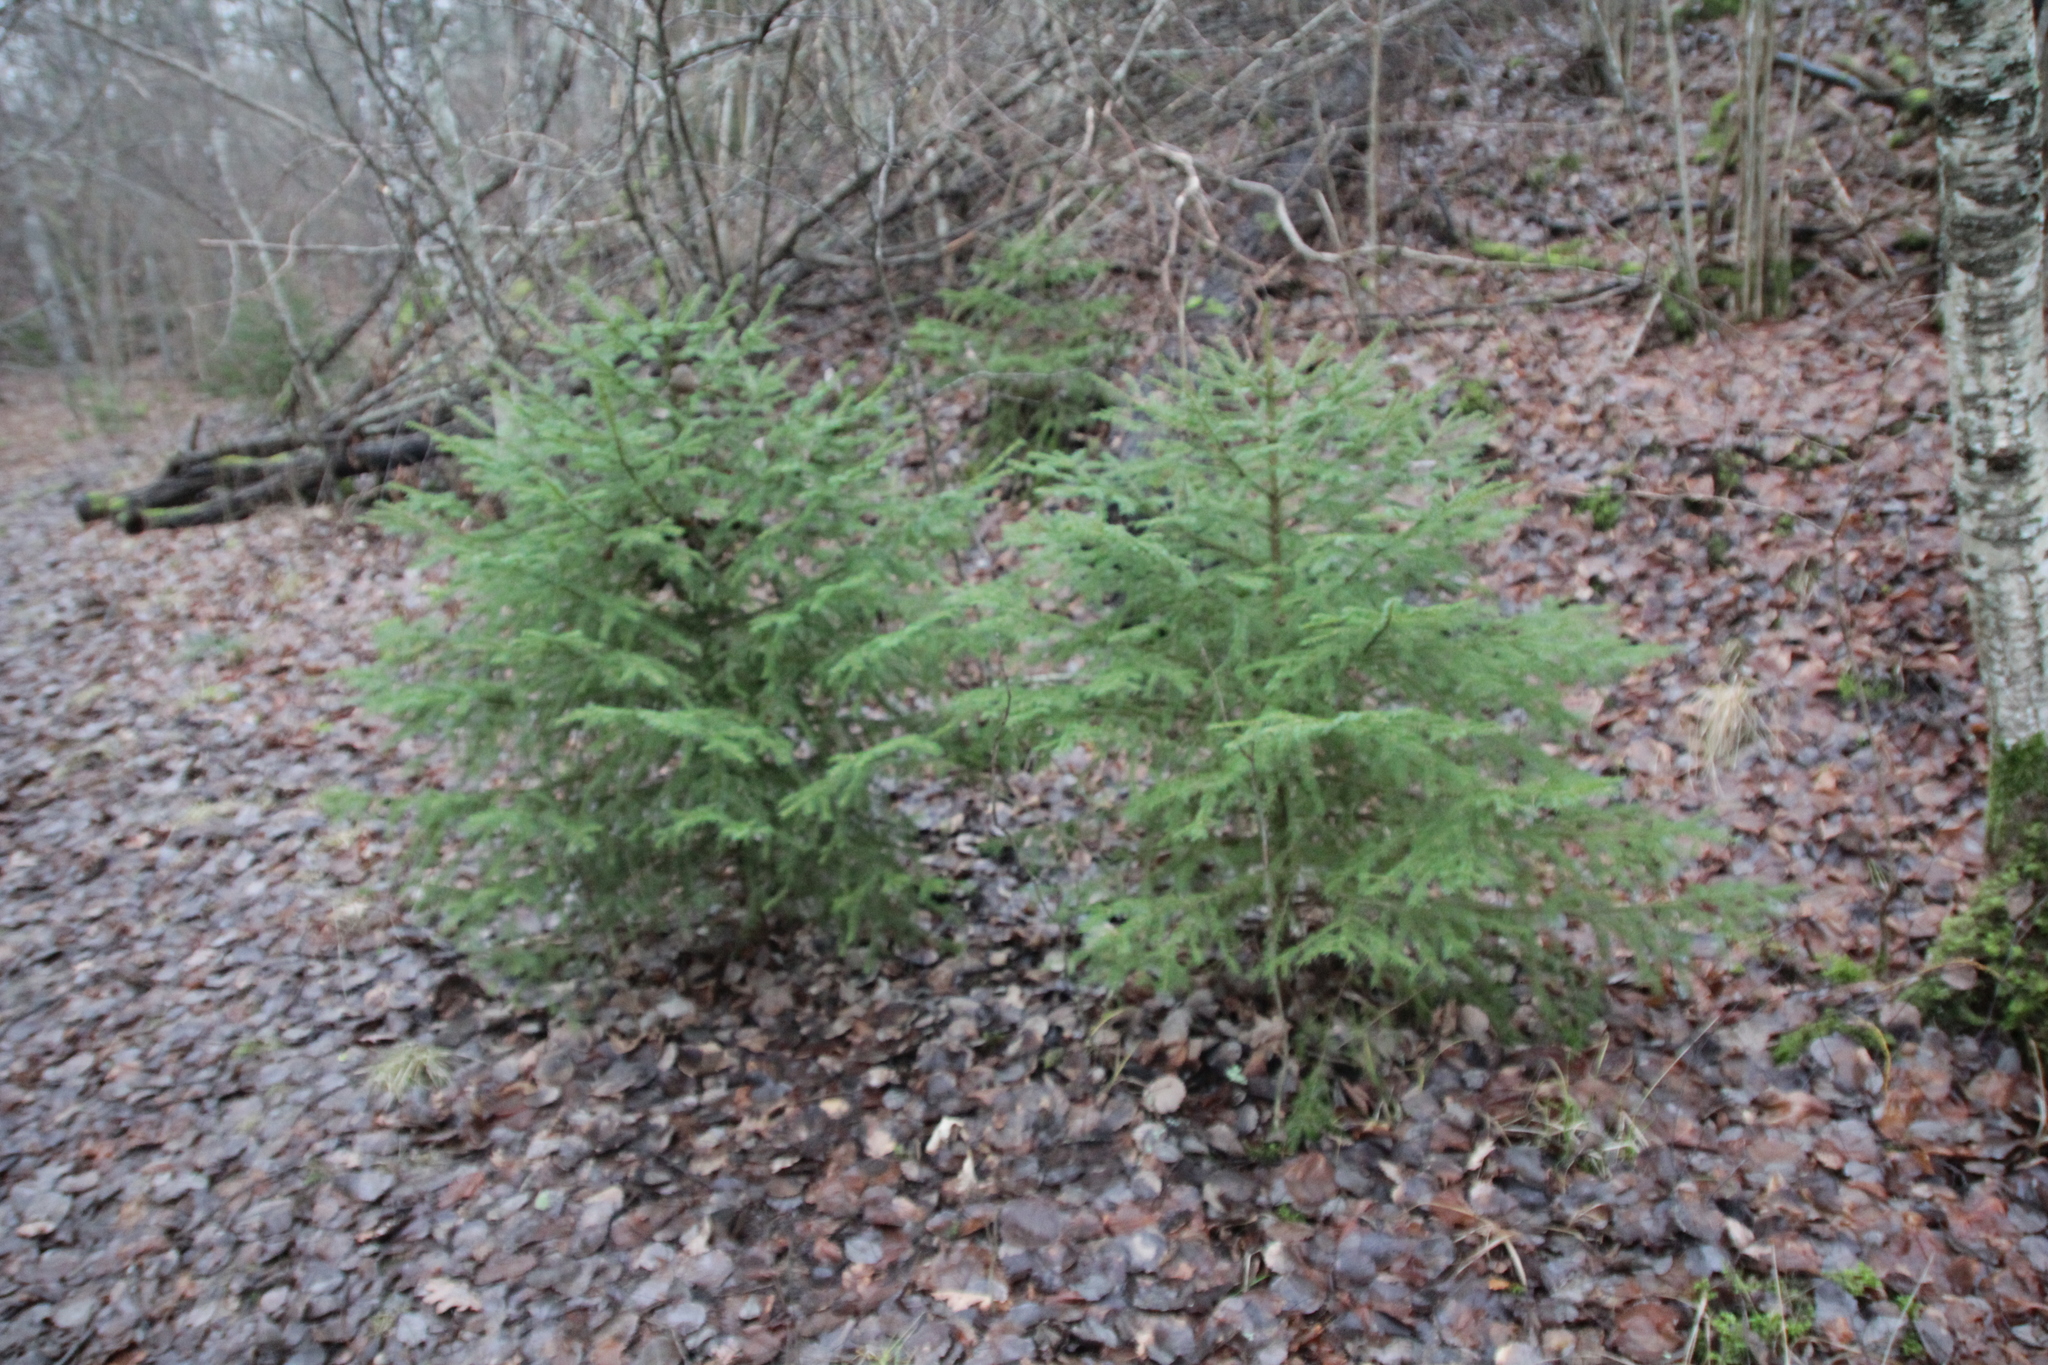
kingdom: Plantae
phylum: Tracheophyta
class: Pinopsida
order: Pinales
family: Pinaceae
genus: Picea
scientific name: Picea abies
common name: Norway spruce
